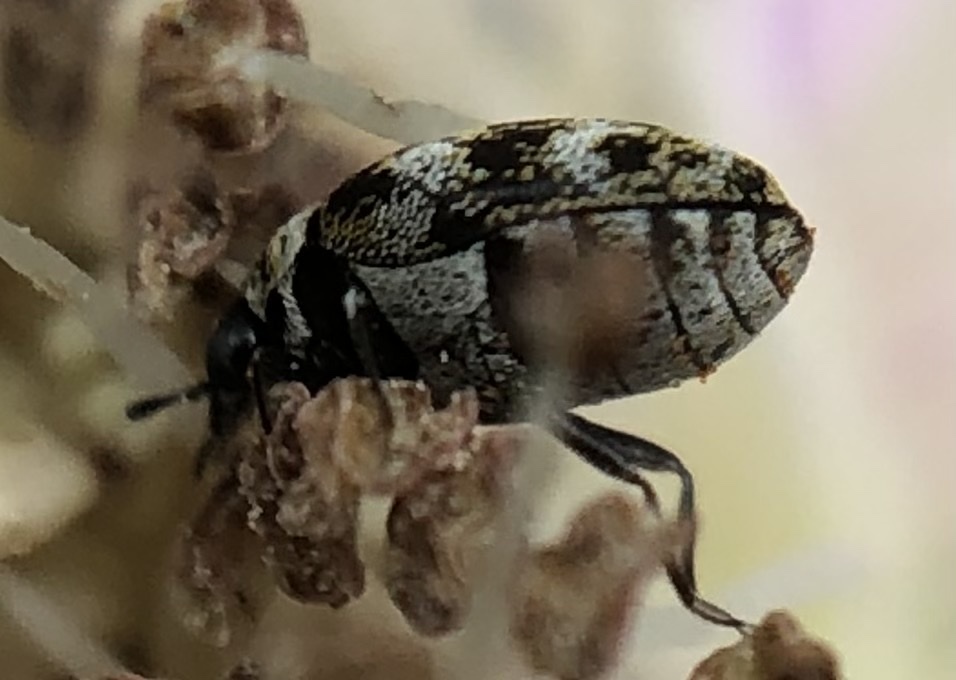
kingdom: Animalia
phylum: Arthropoda
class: Insecta
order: Coleoptera
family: Dermestidae
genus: Anthrenus
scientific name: Anthrenus verbasci
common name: Varied carpet beetle
